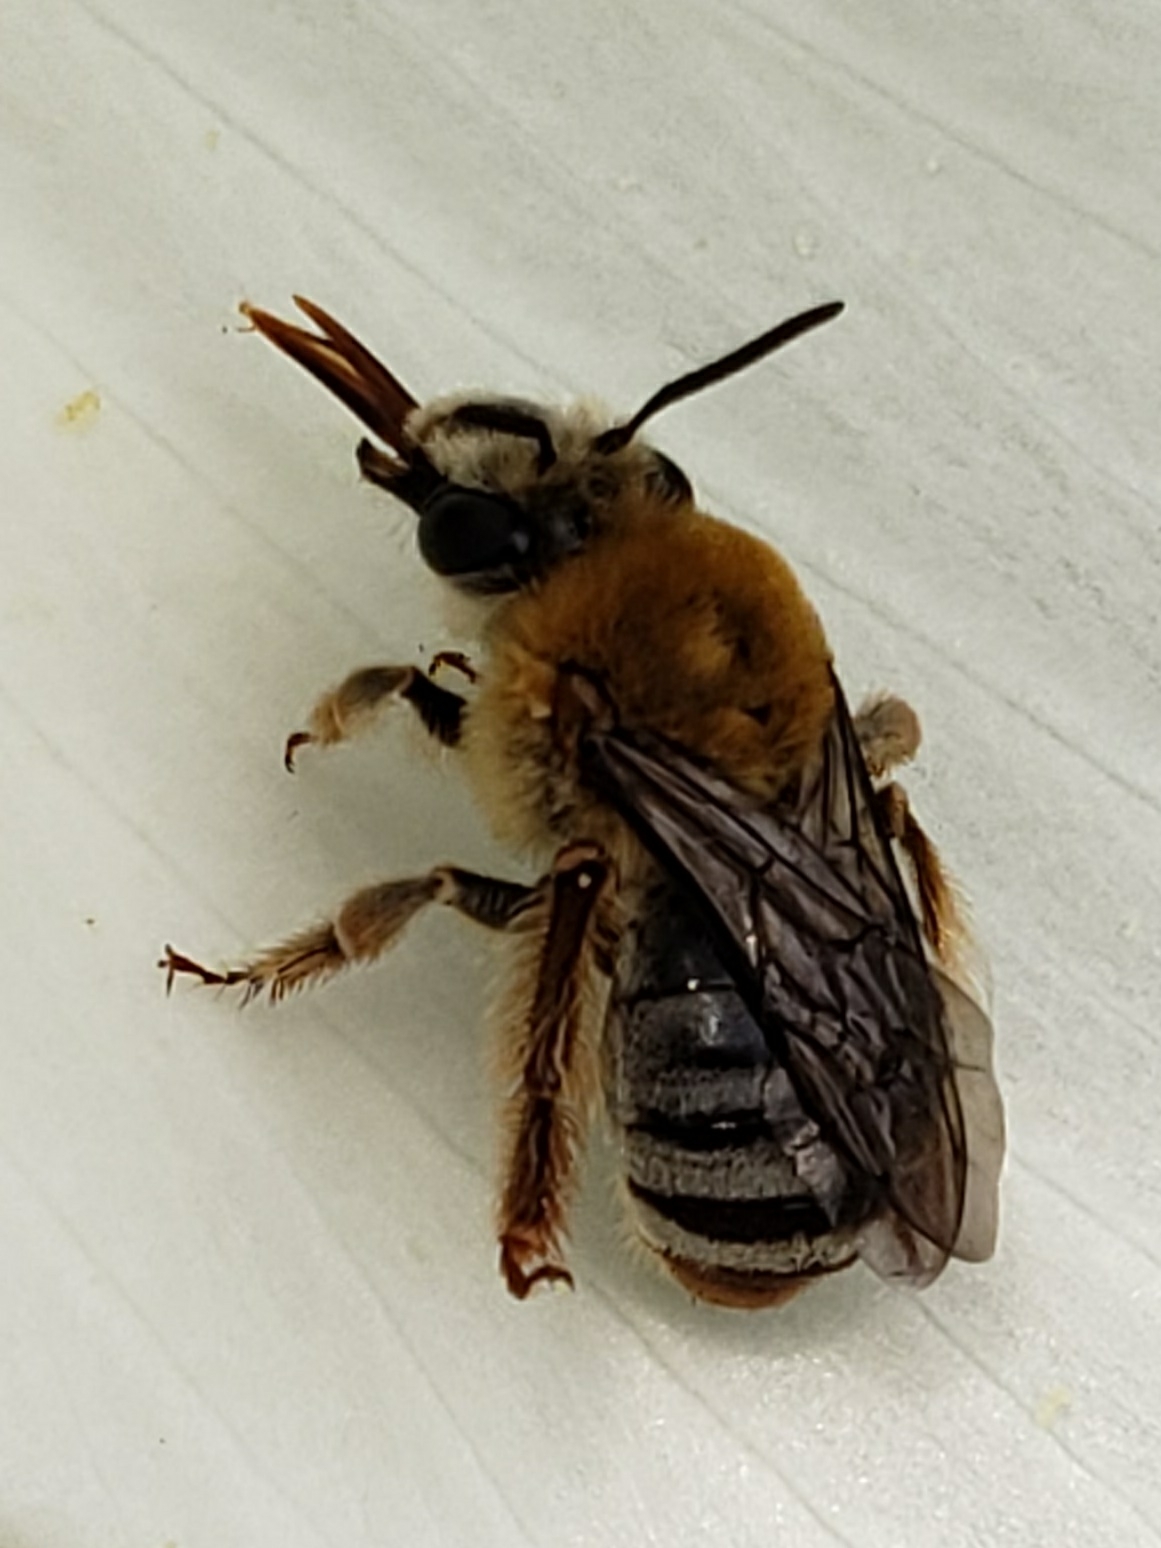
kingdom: Animalia
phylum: Arthropoda
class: Insecta
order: Hymenoptera
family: Apidae
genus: Peponapis
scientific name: Peponapis pruinosa
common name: Pruinose squash bee
